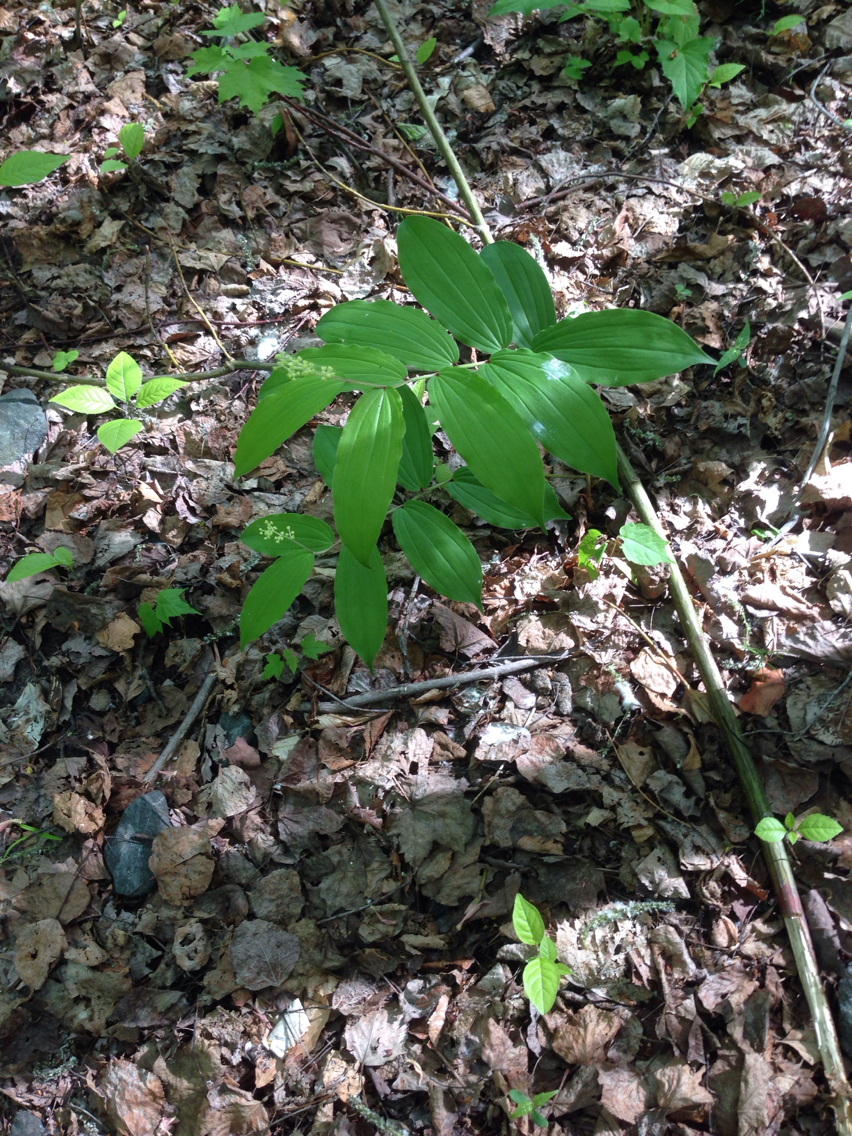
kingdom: Plantae
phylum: Tracheophyta
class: Liliopsida
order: Asparagales
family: Asparagaceae
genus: Maianthemum
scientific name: Maianthemum racemosum
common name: False spikenard
